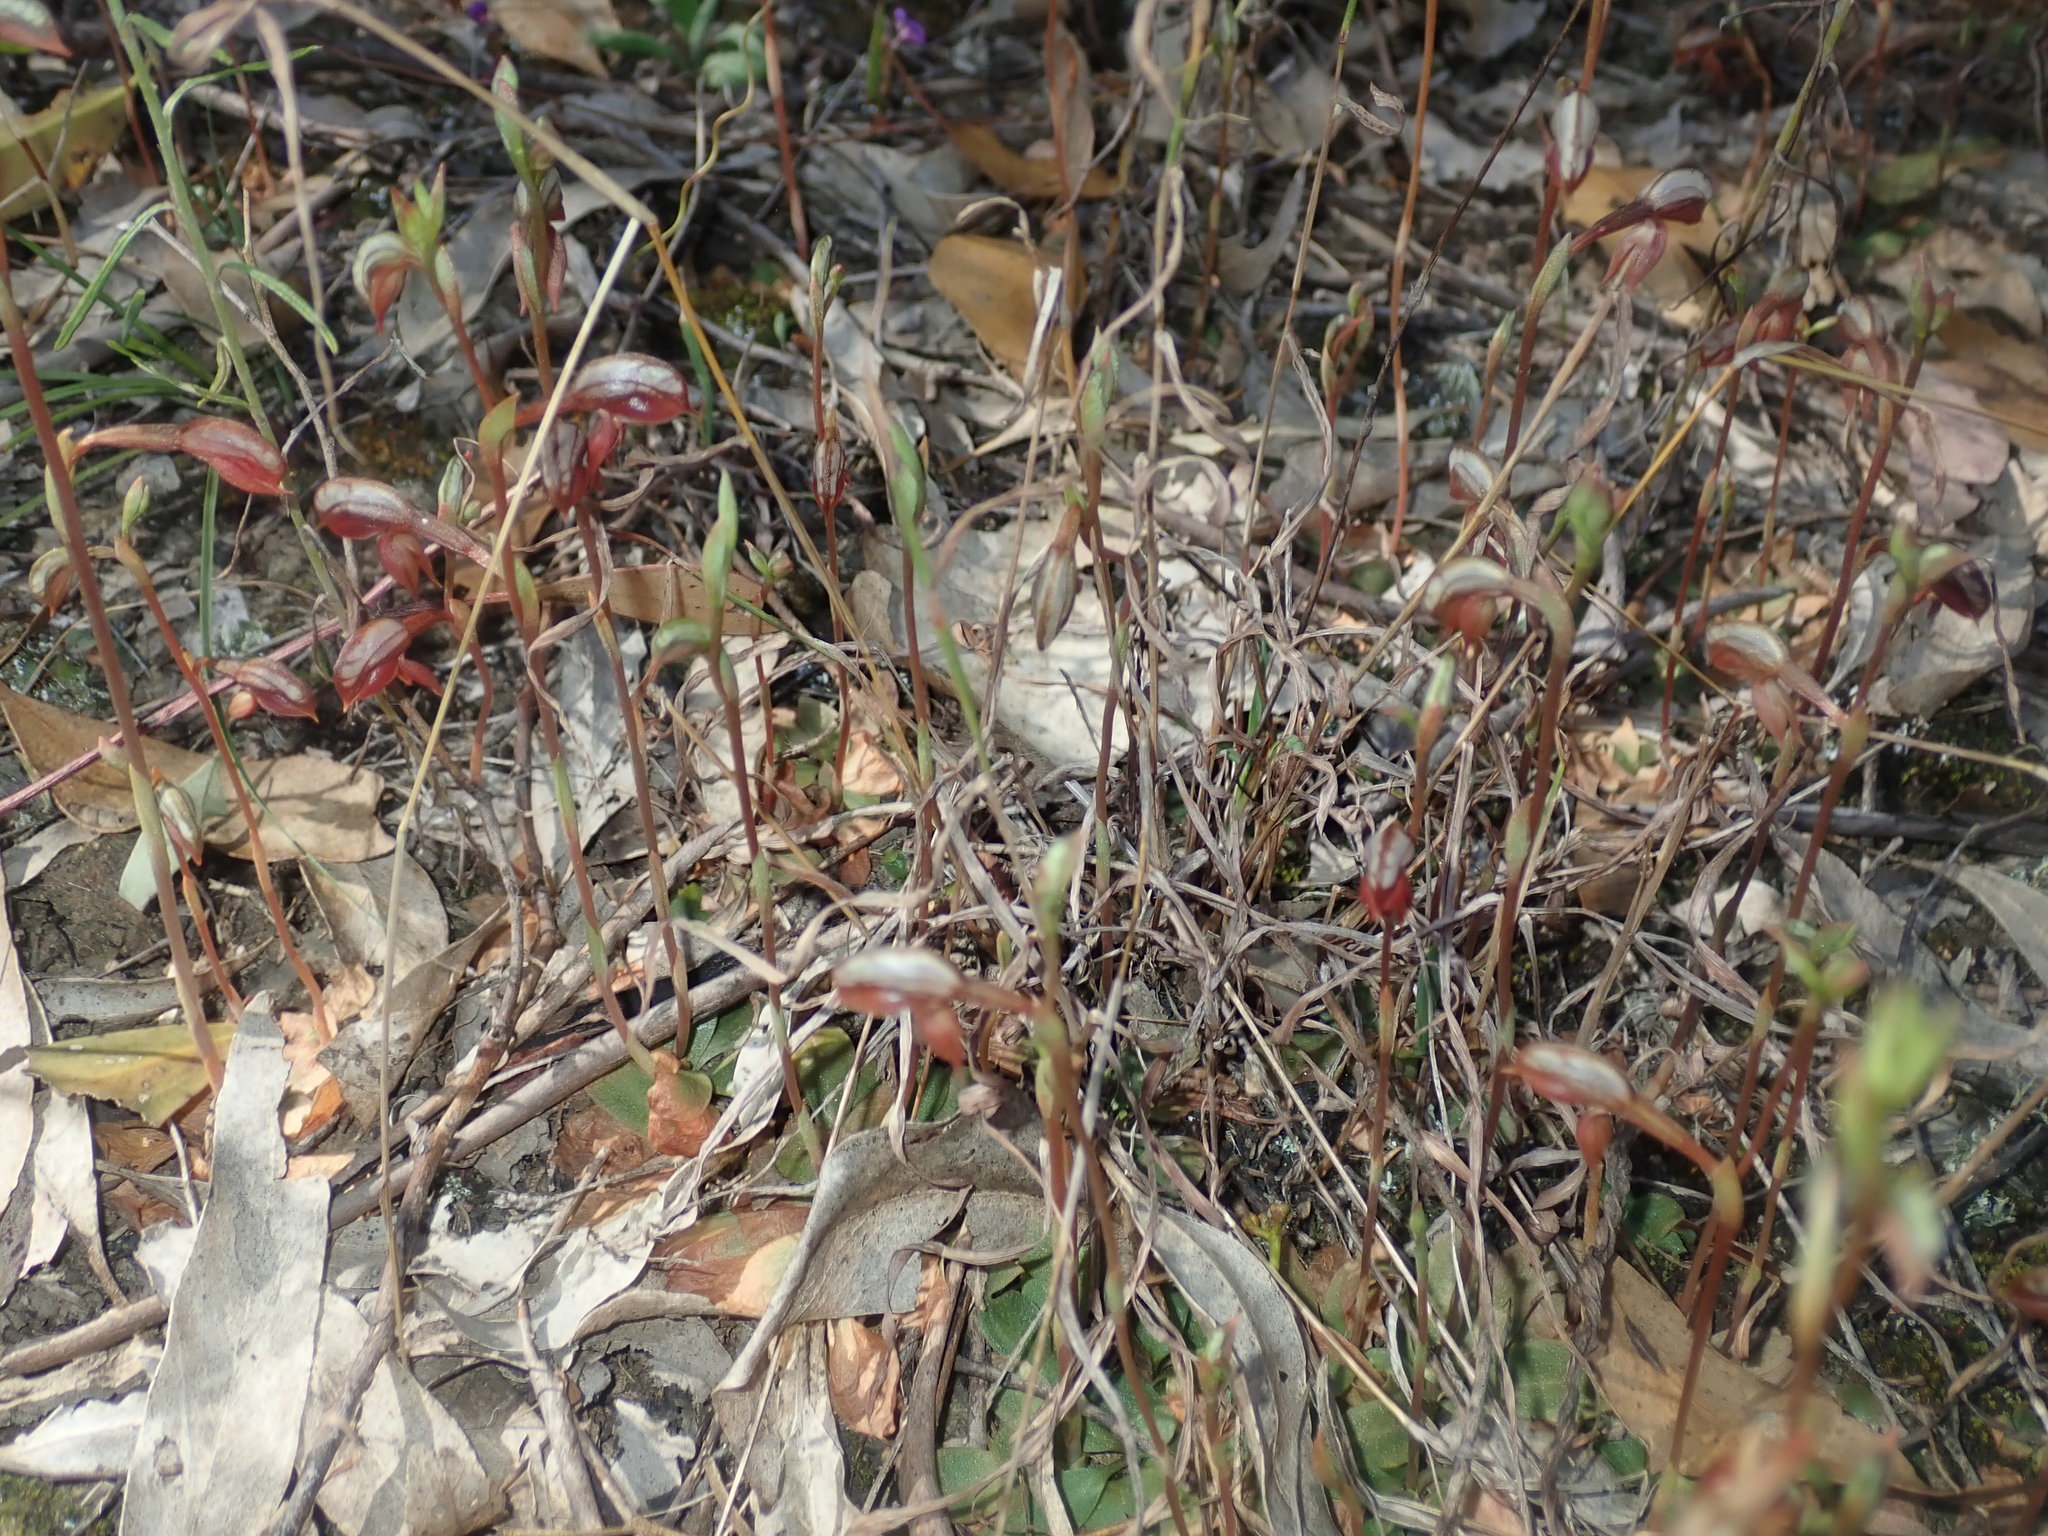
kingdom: Plantae
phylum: Tracheophyta
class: Liliopsida
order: Asparagales
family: Orchidaceae
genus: Pterostylis
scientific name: Pterostylis rufa
